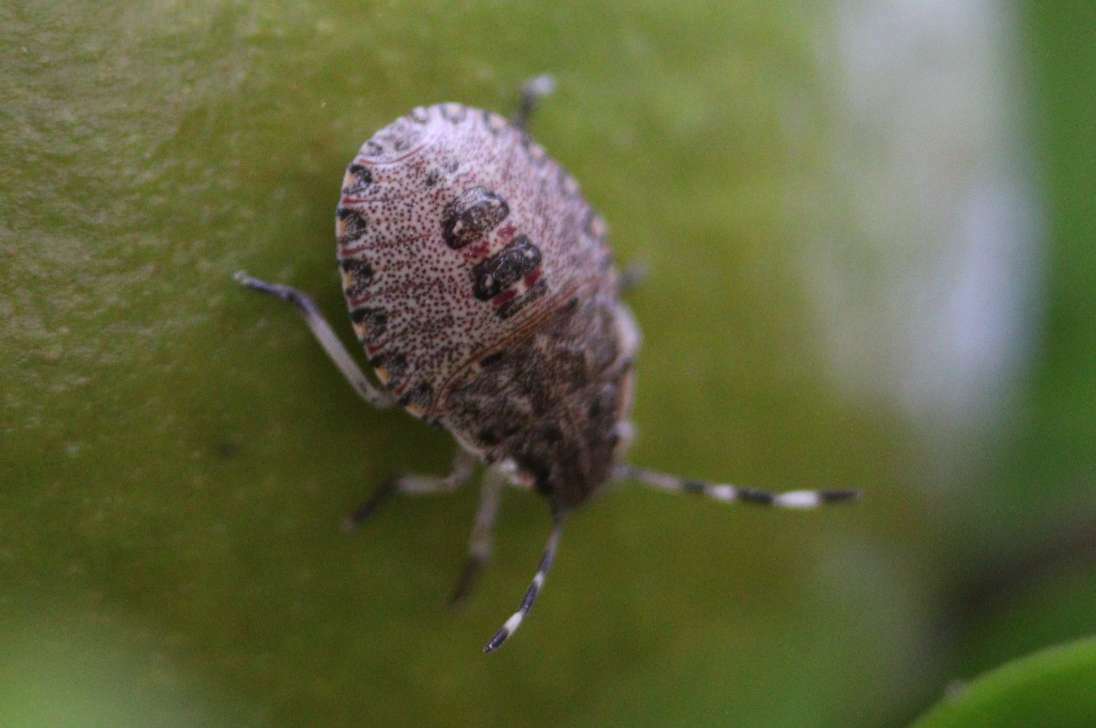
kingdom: Animalia
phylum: Arthropoda
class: Insecta
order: Hemiptera
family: Pentatomidae
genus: Rhaphigaster
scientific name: Rhaphigaster nebulosa
